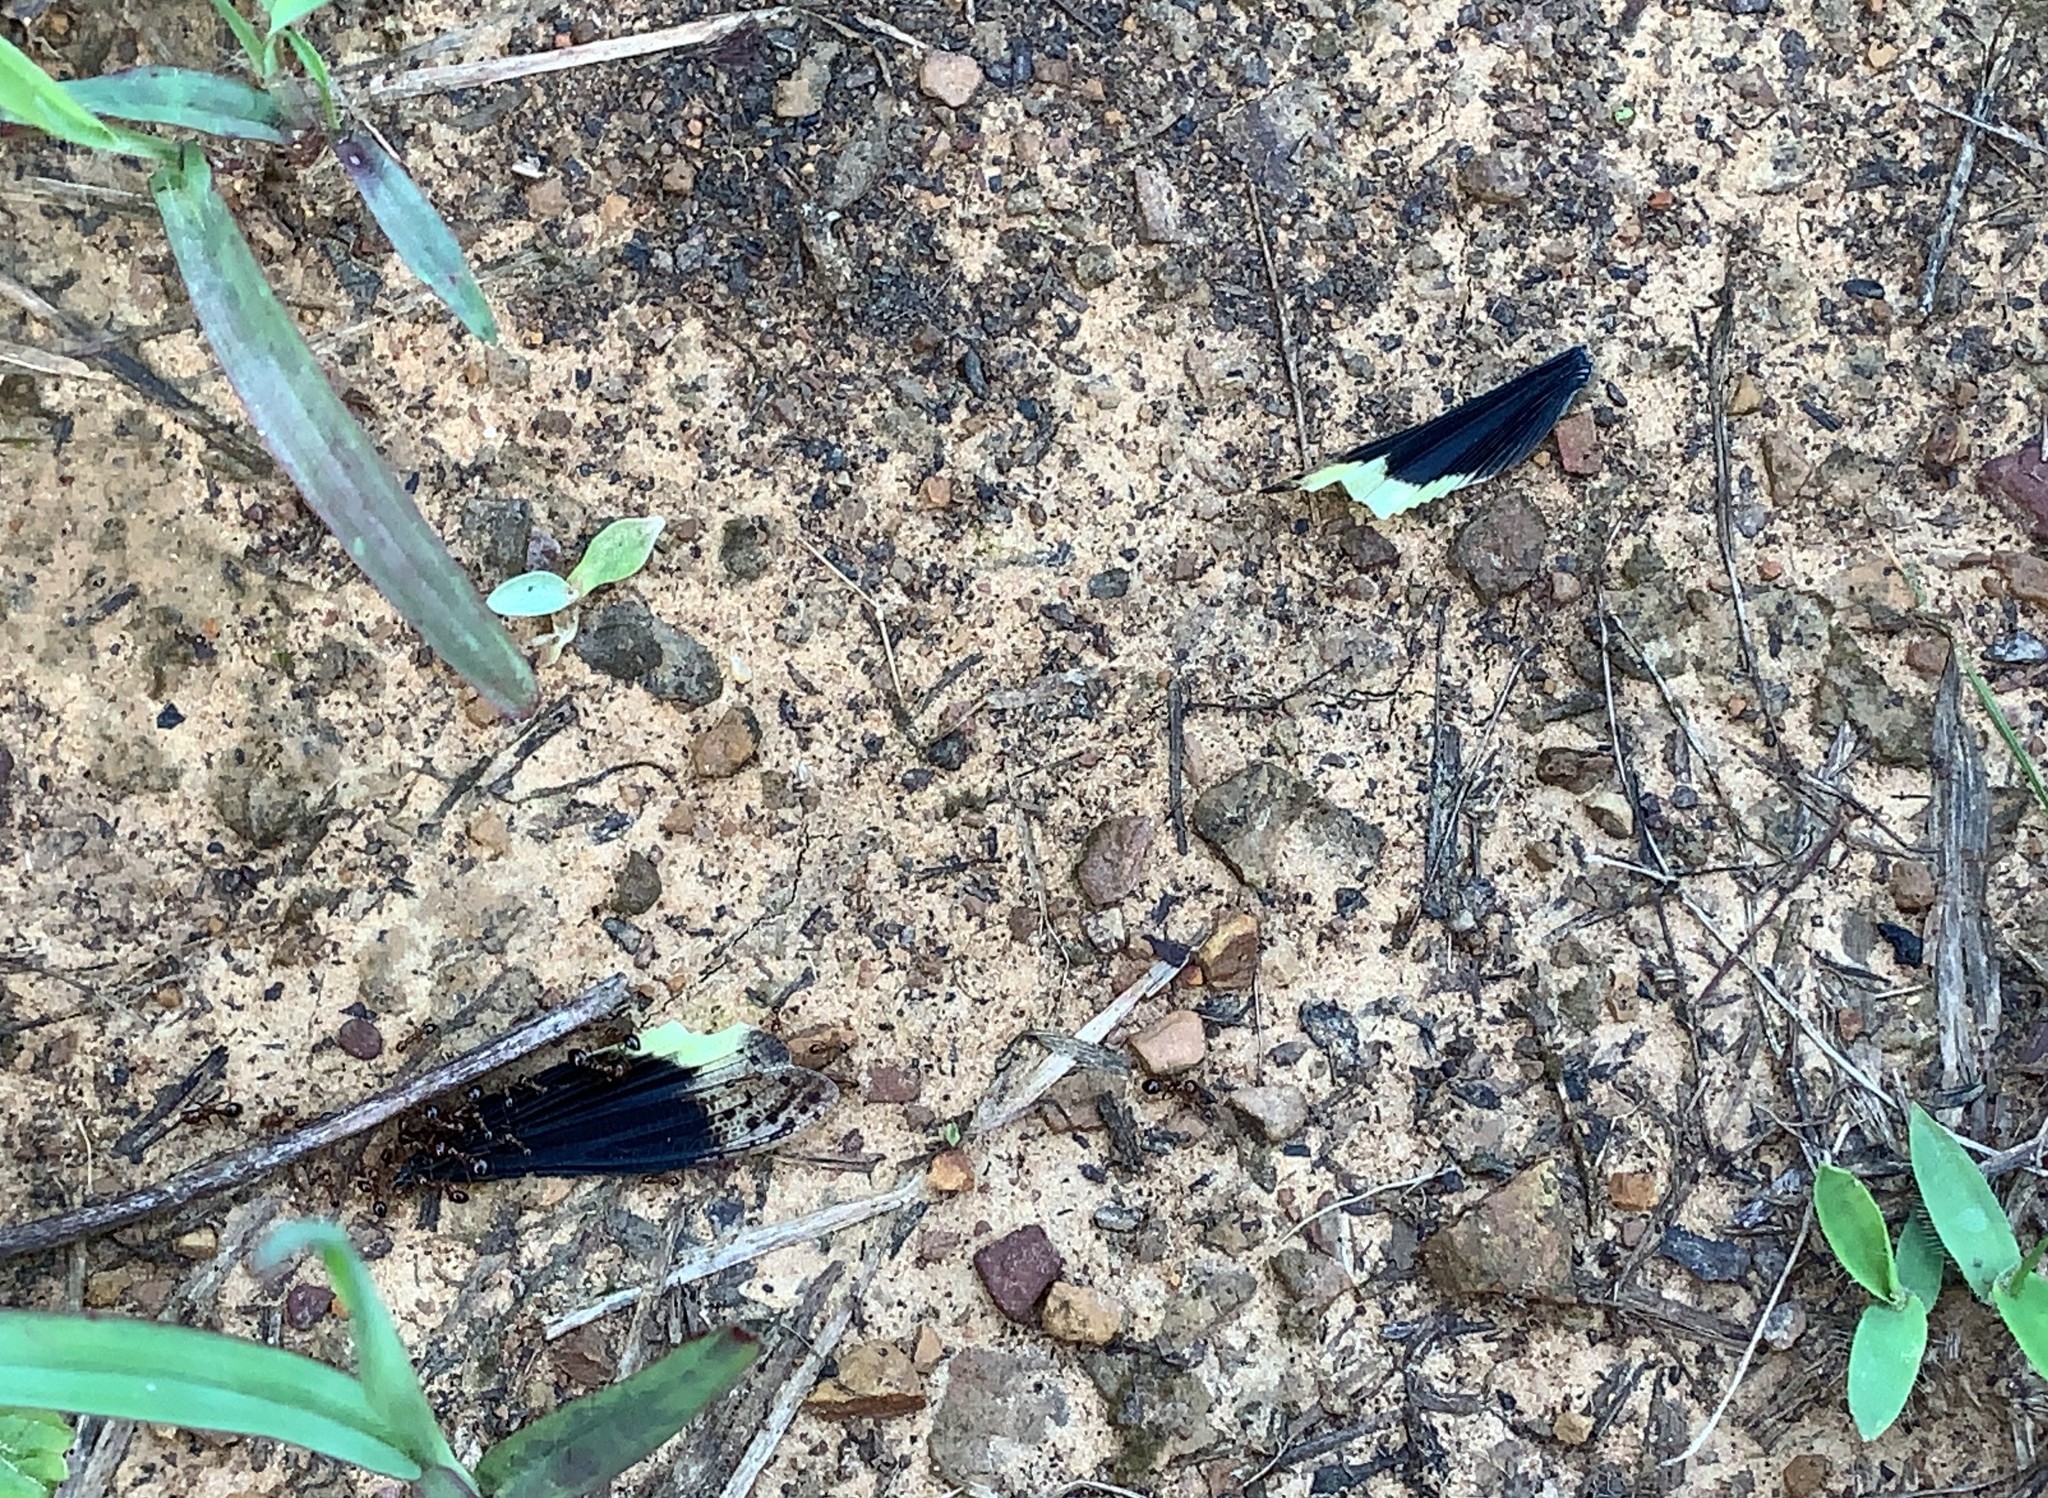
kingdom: Animalia
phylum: Arthropoda
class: Insecta
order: Orthoptera
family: Acrididae
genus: Dissosteira
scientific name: Dissosteira carolina
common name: Carolina grasshopper
